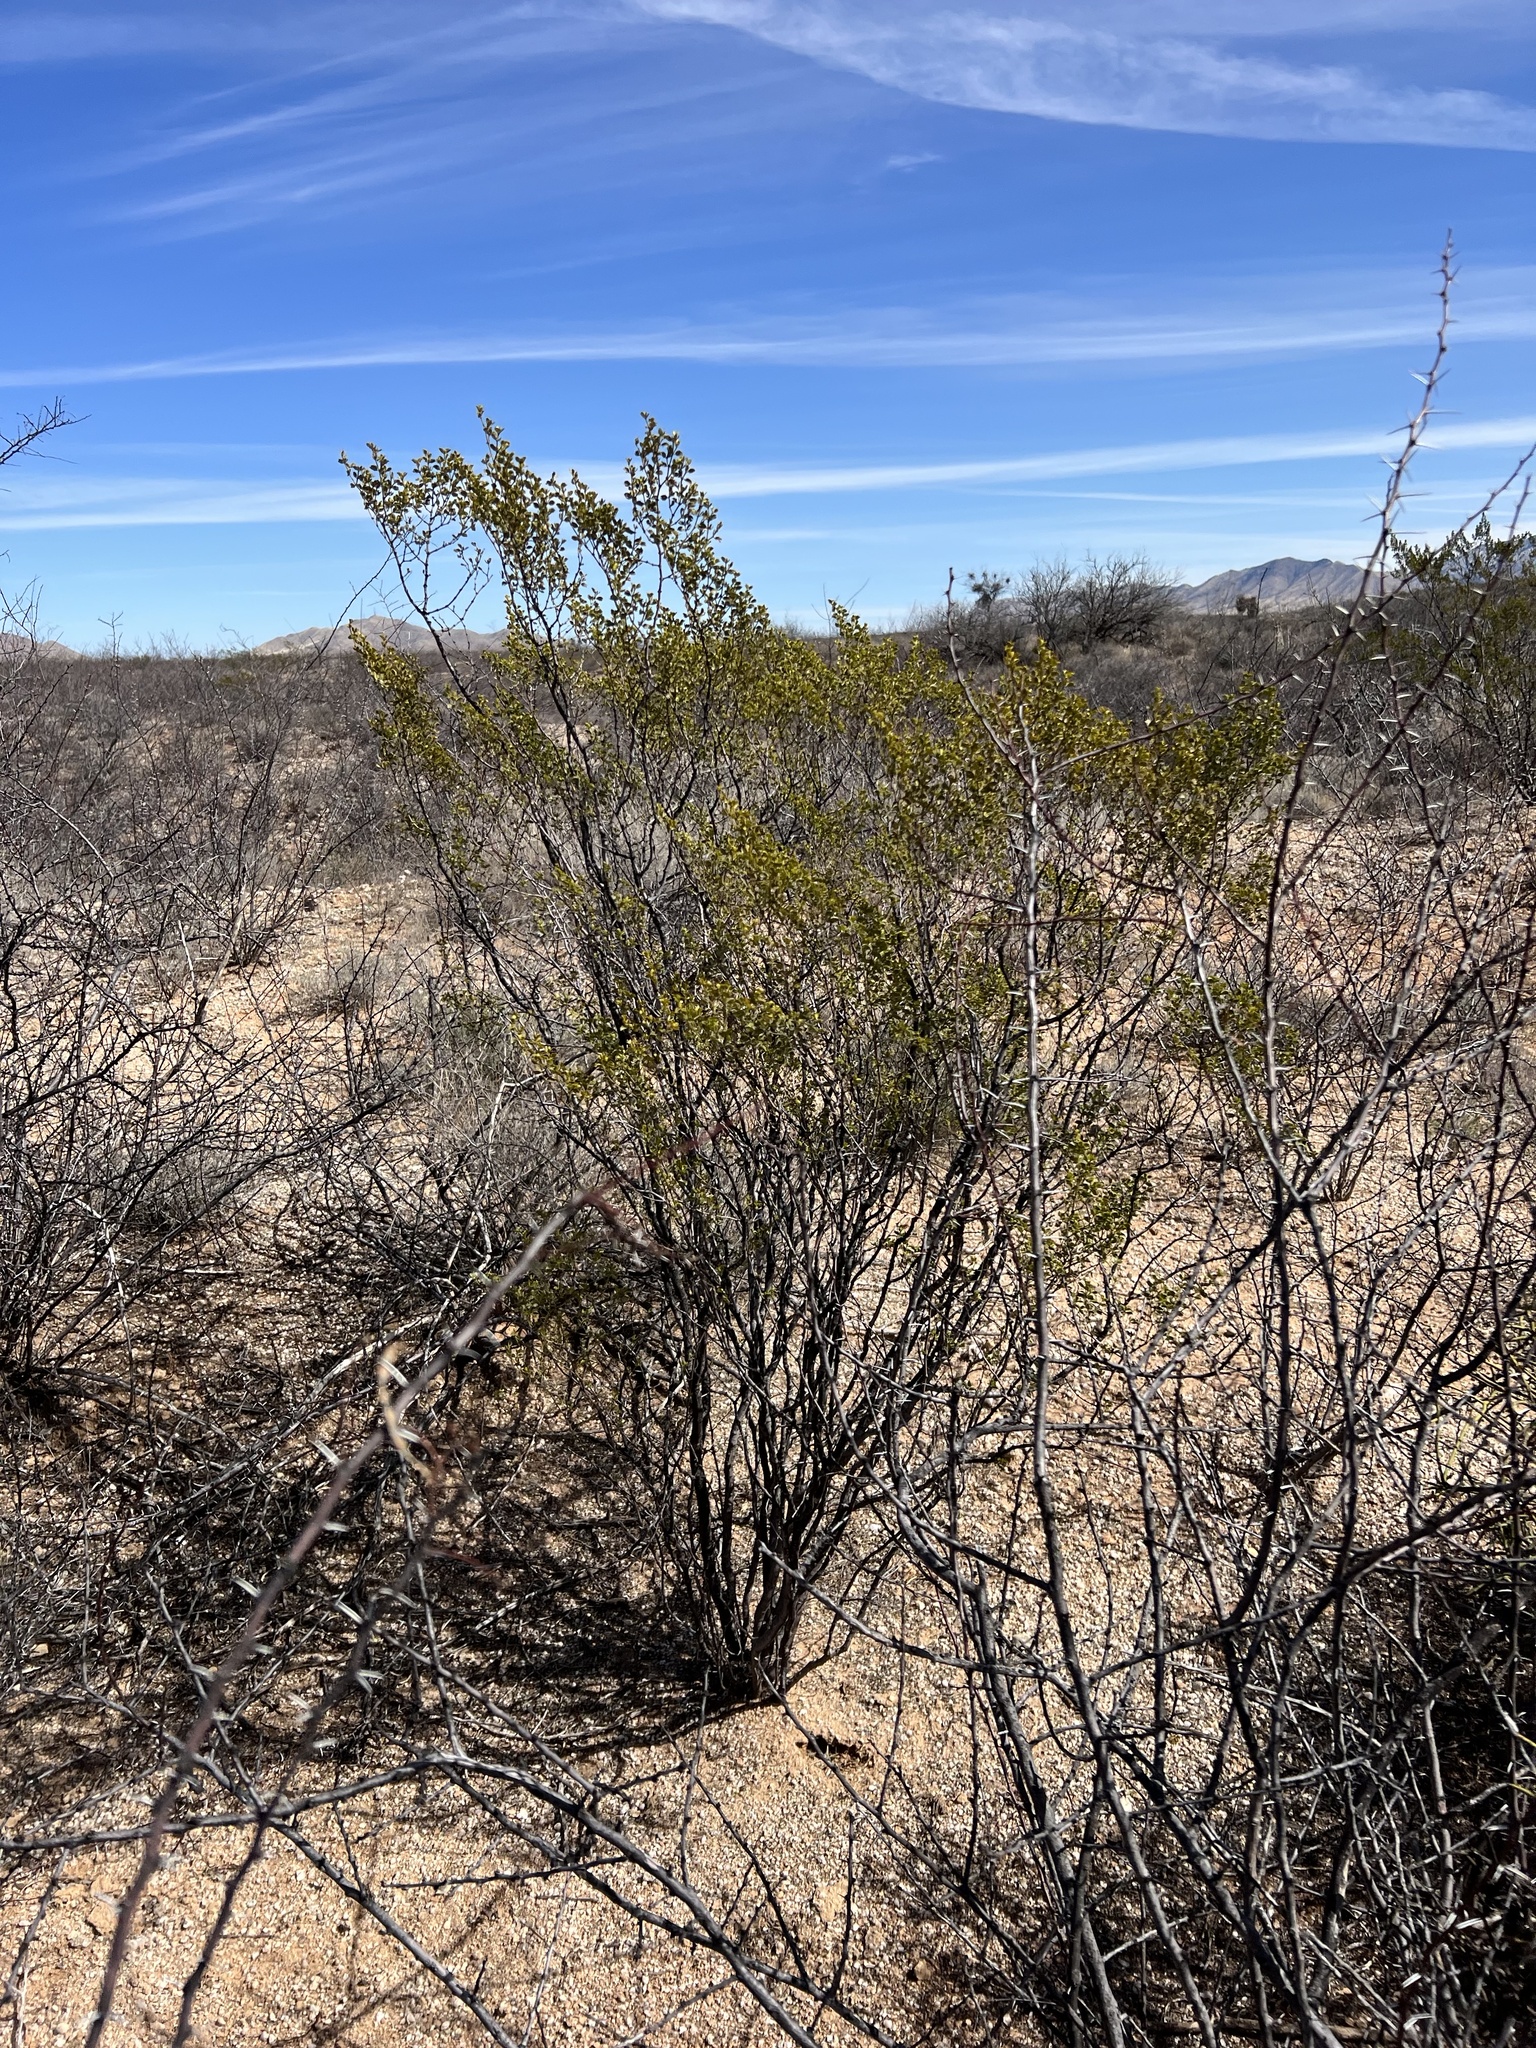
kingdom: Plantae
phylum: Tracheophyta
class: Magnoliopsida
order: Zygophyllales
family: Zygophyllaceae
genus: Larrea
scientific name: Larrea tridentata
